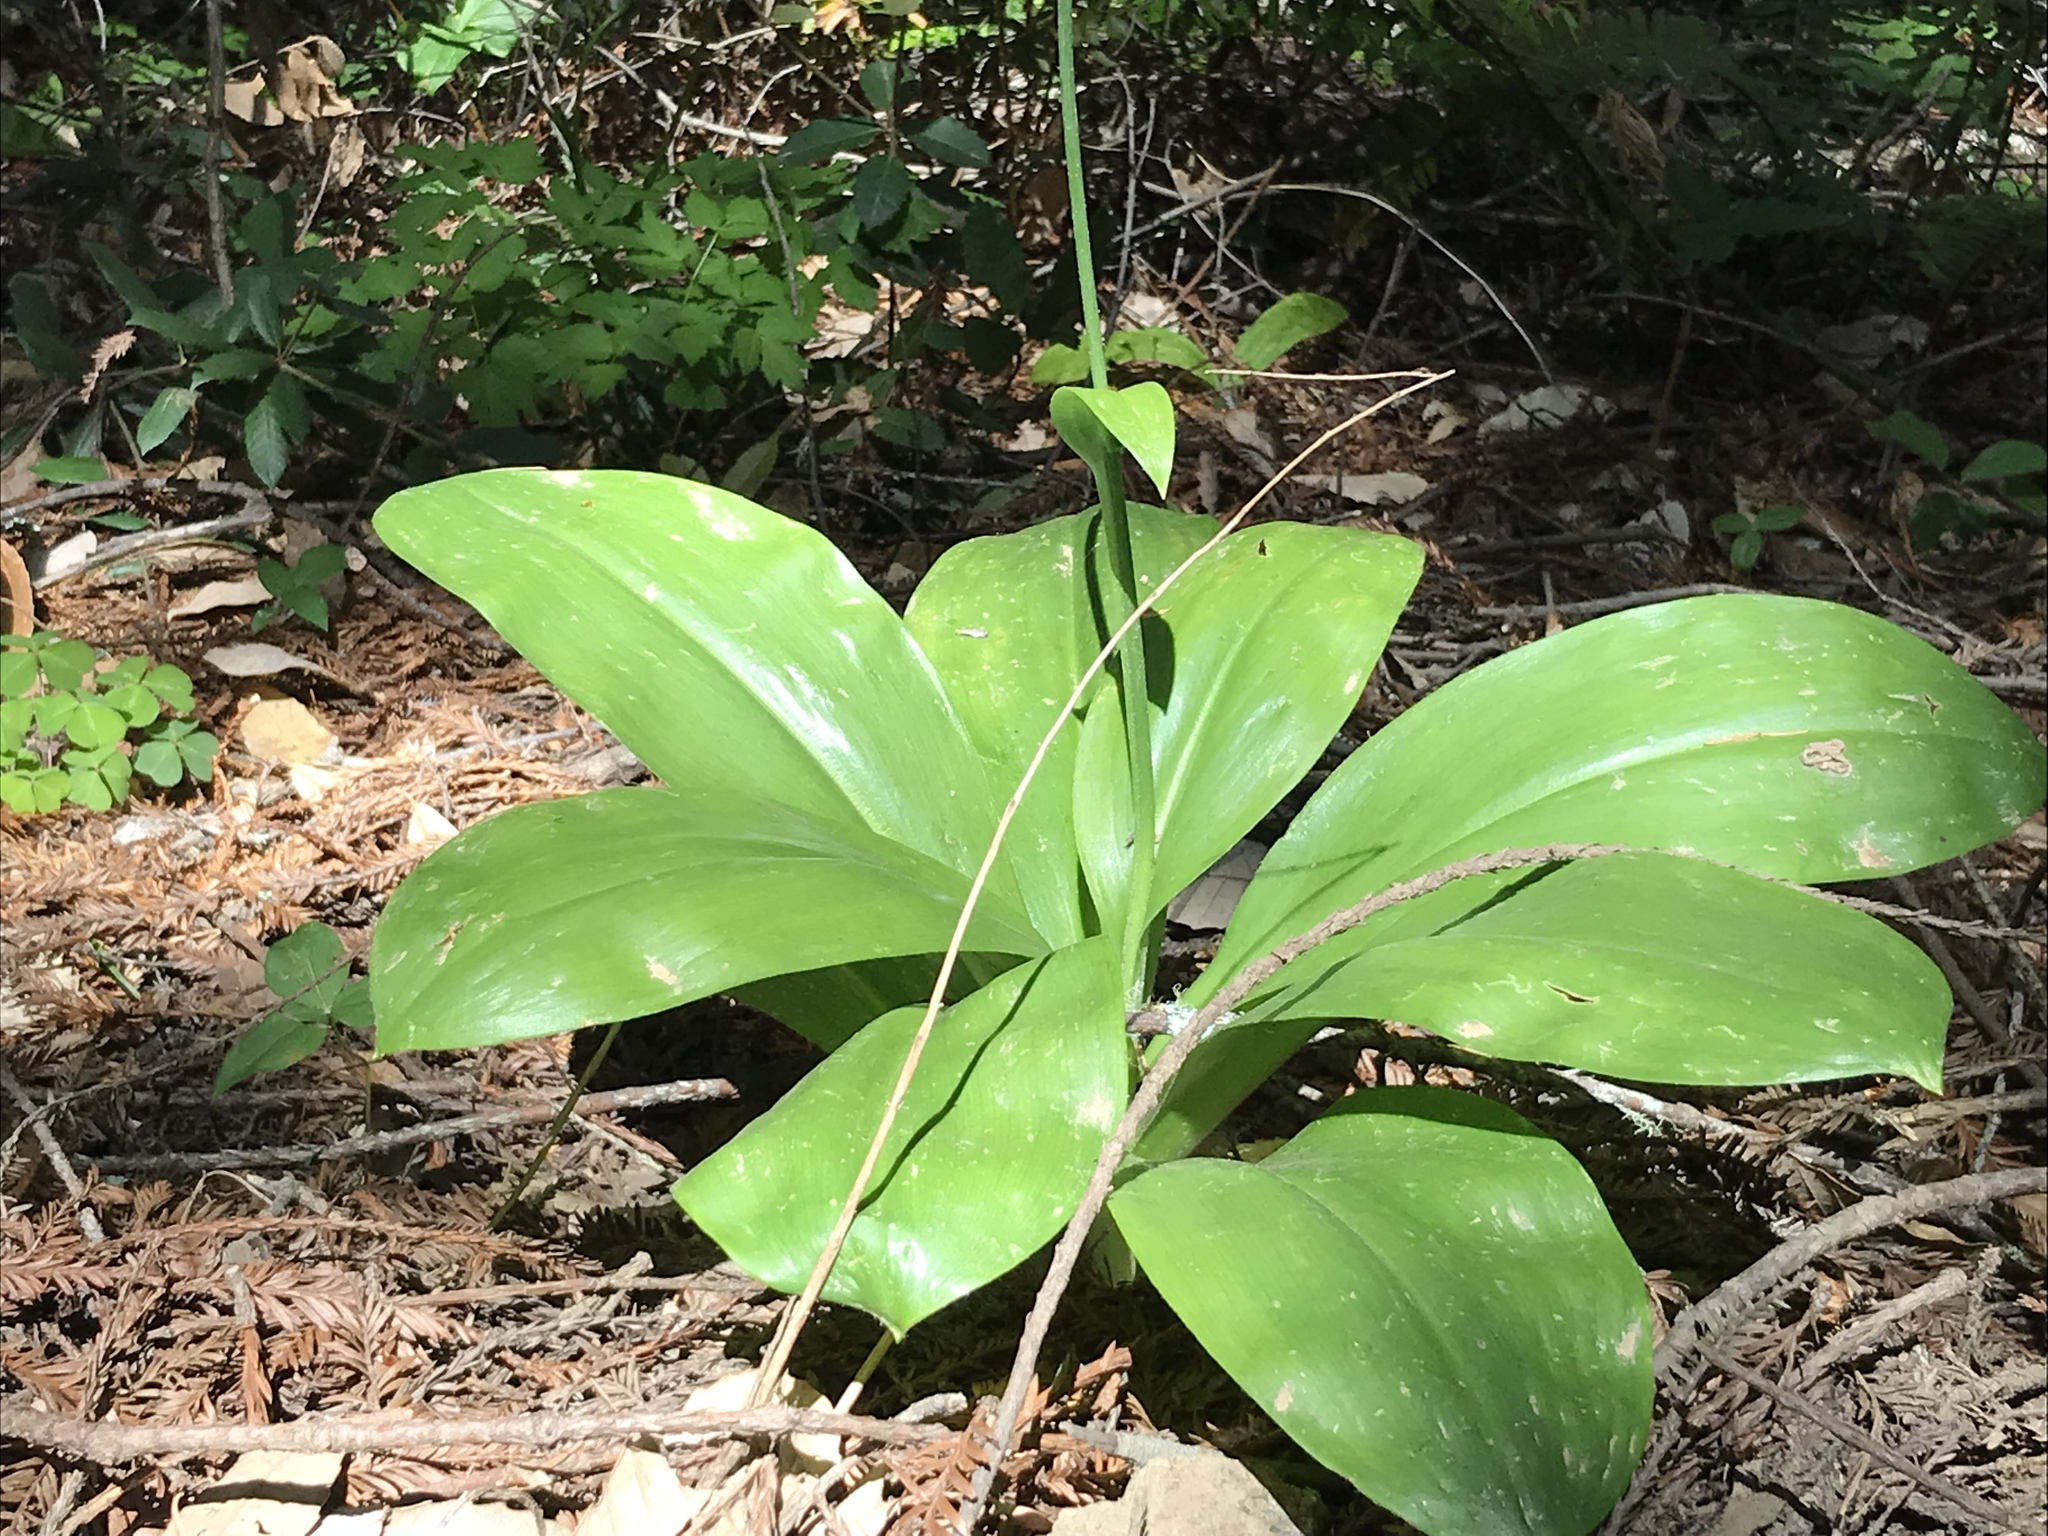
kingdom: Plantae
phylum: Tracheophyta
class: Liliopsida
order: Liliales
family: Liliaceae
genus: Clintonia
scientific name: Clintonia andrewsiana
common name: Red clintonia
